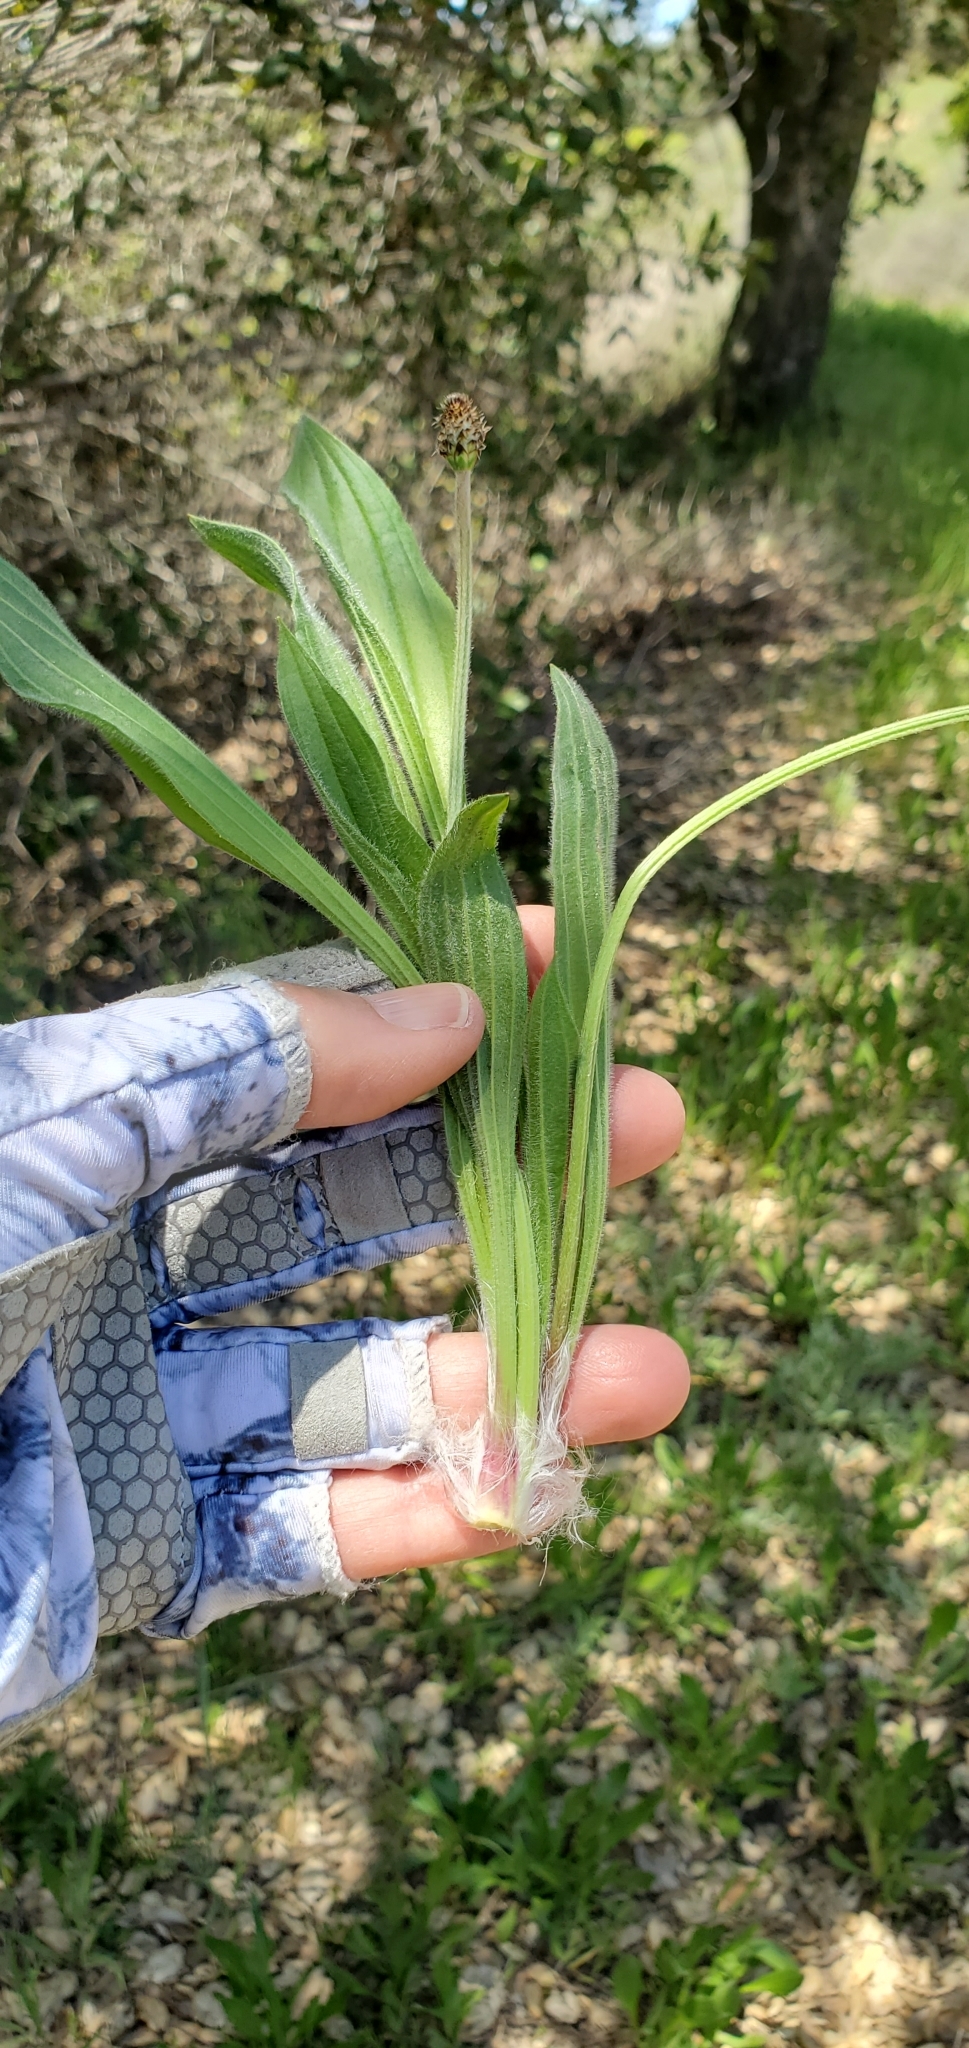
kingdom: Plantae
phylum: Tracheophyta
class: Magnoliopsida
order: Lamiales
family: Plantaginaceae
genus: Plantago
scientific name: Plantago lanceolata
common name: Ribwort plantain
